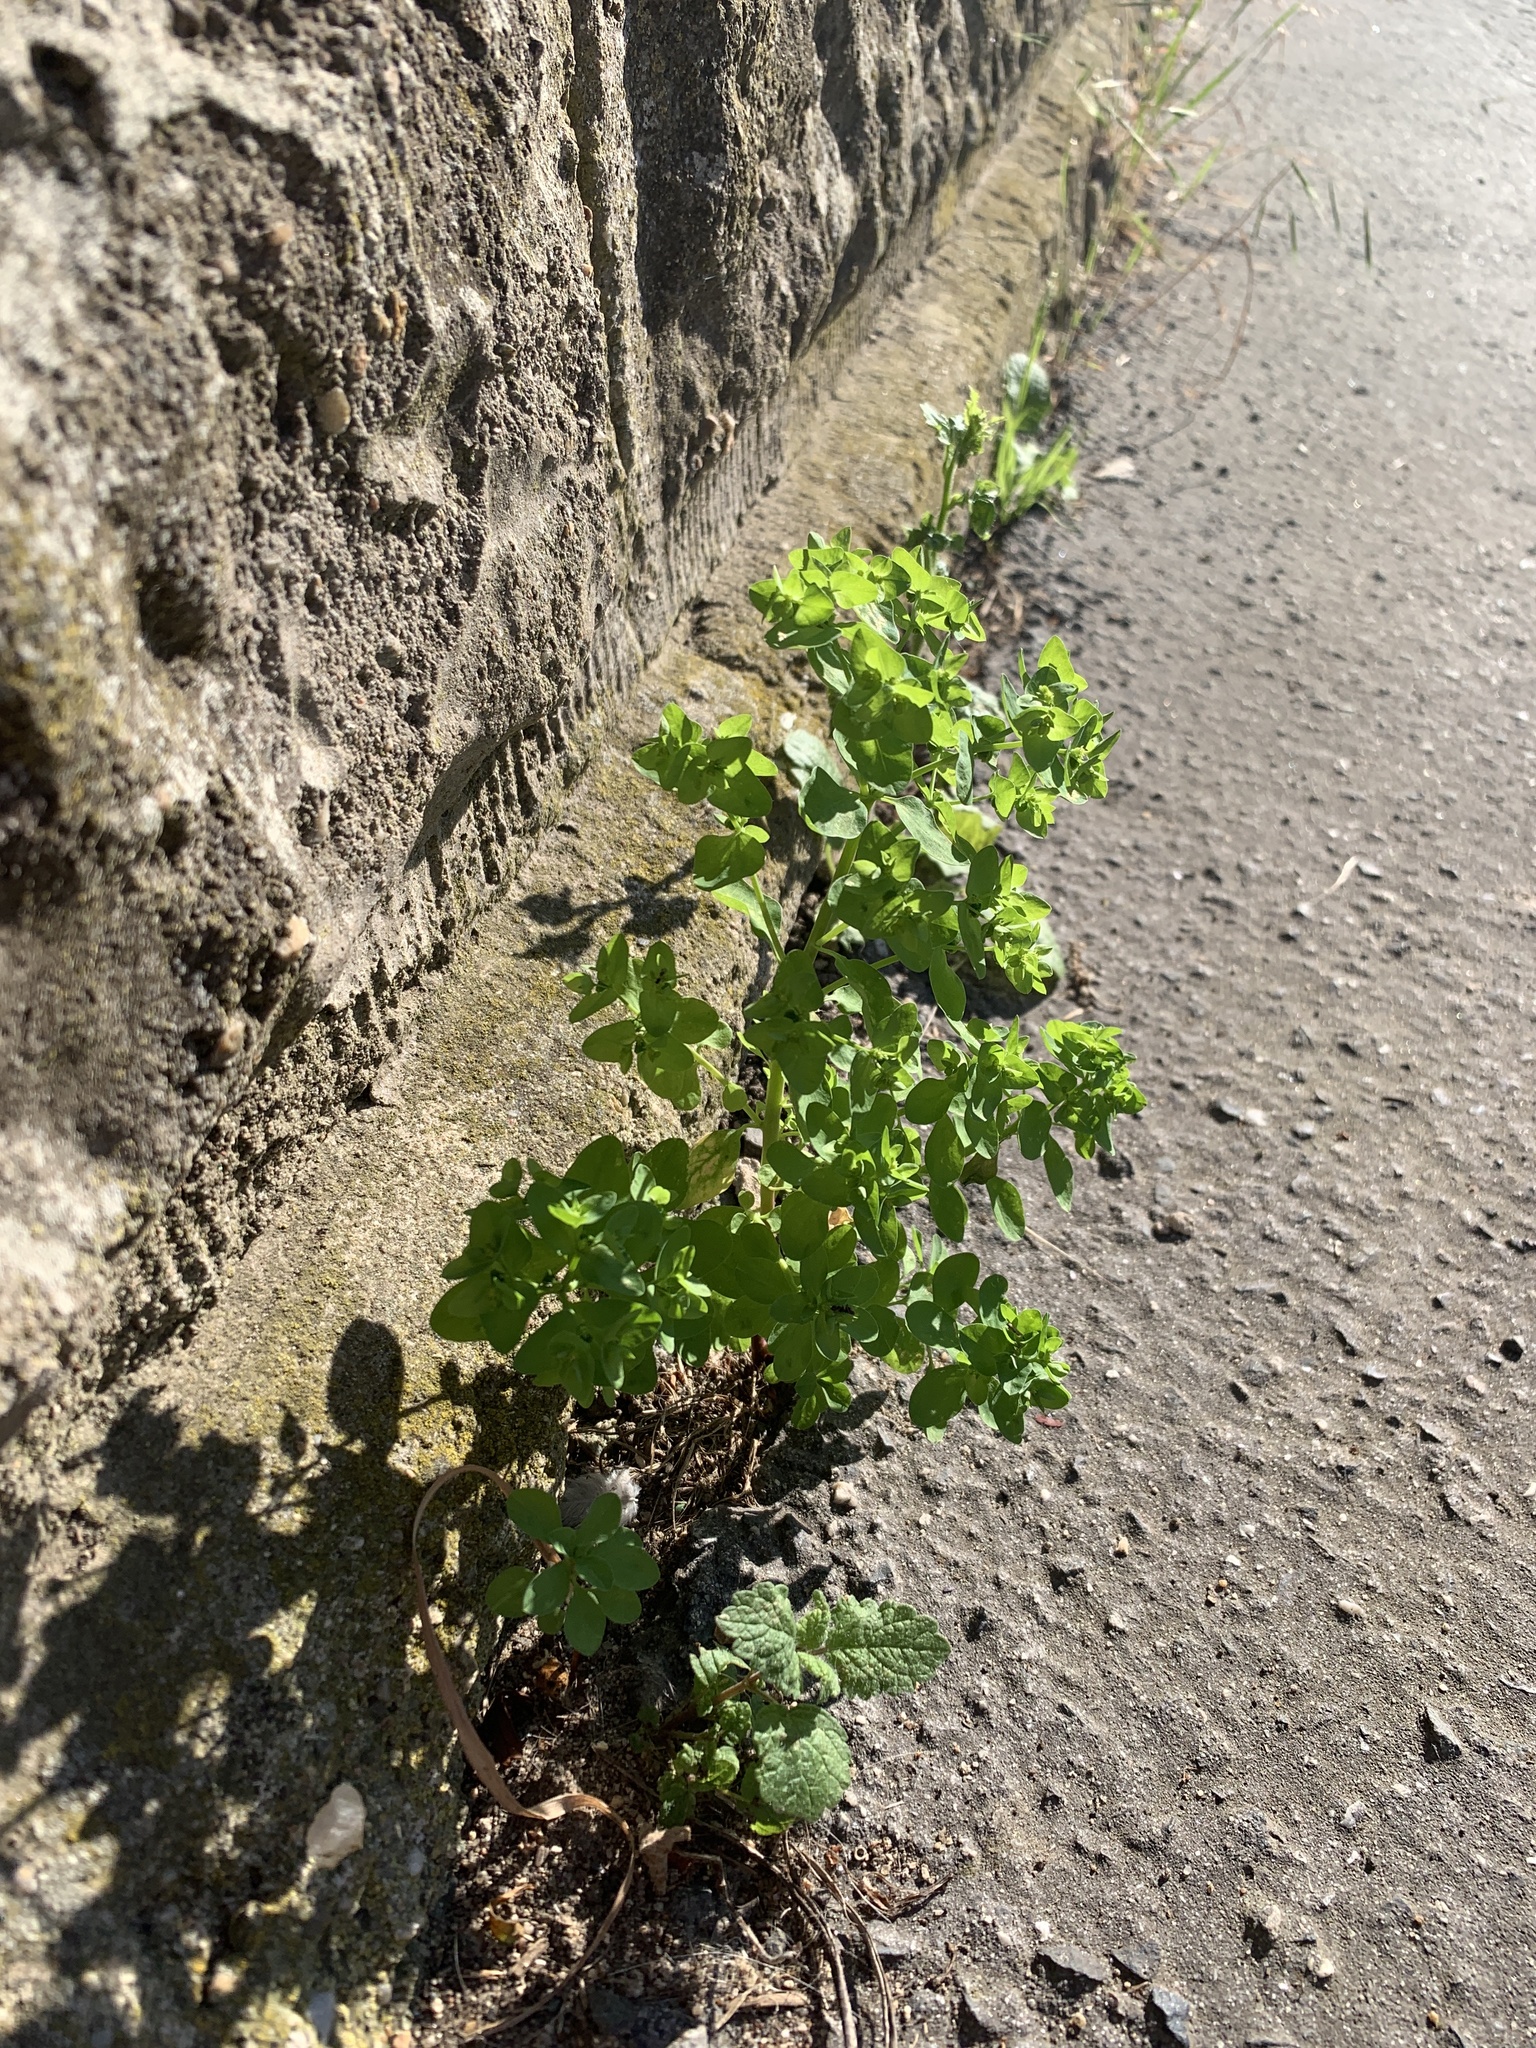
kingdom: Plantae
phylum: Tracheophyta
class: Magnoliopsida
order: Malpighiales
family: Euphorbiaceae
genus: Euphorbia
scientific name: Euphorbia peplus
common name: Petty spurge
